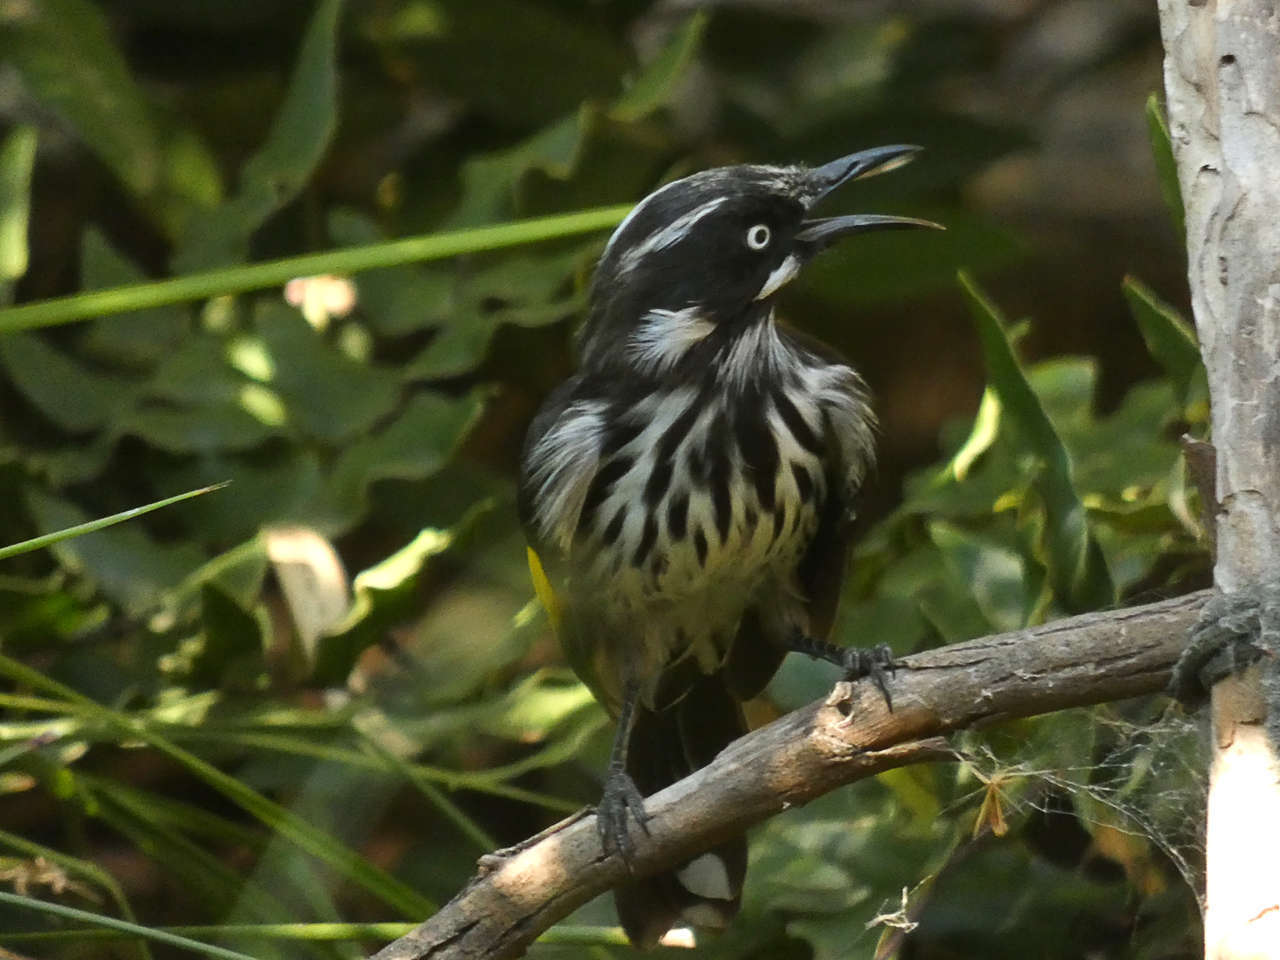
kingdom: Animalia
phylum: Chordata
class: Aves
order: Passeriformes
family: Meliphagidae
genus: Phylidonyris
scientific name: Phylidonyris novaehollandiae
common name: New holland honeyeater
